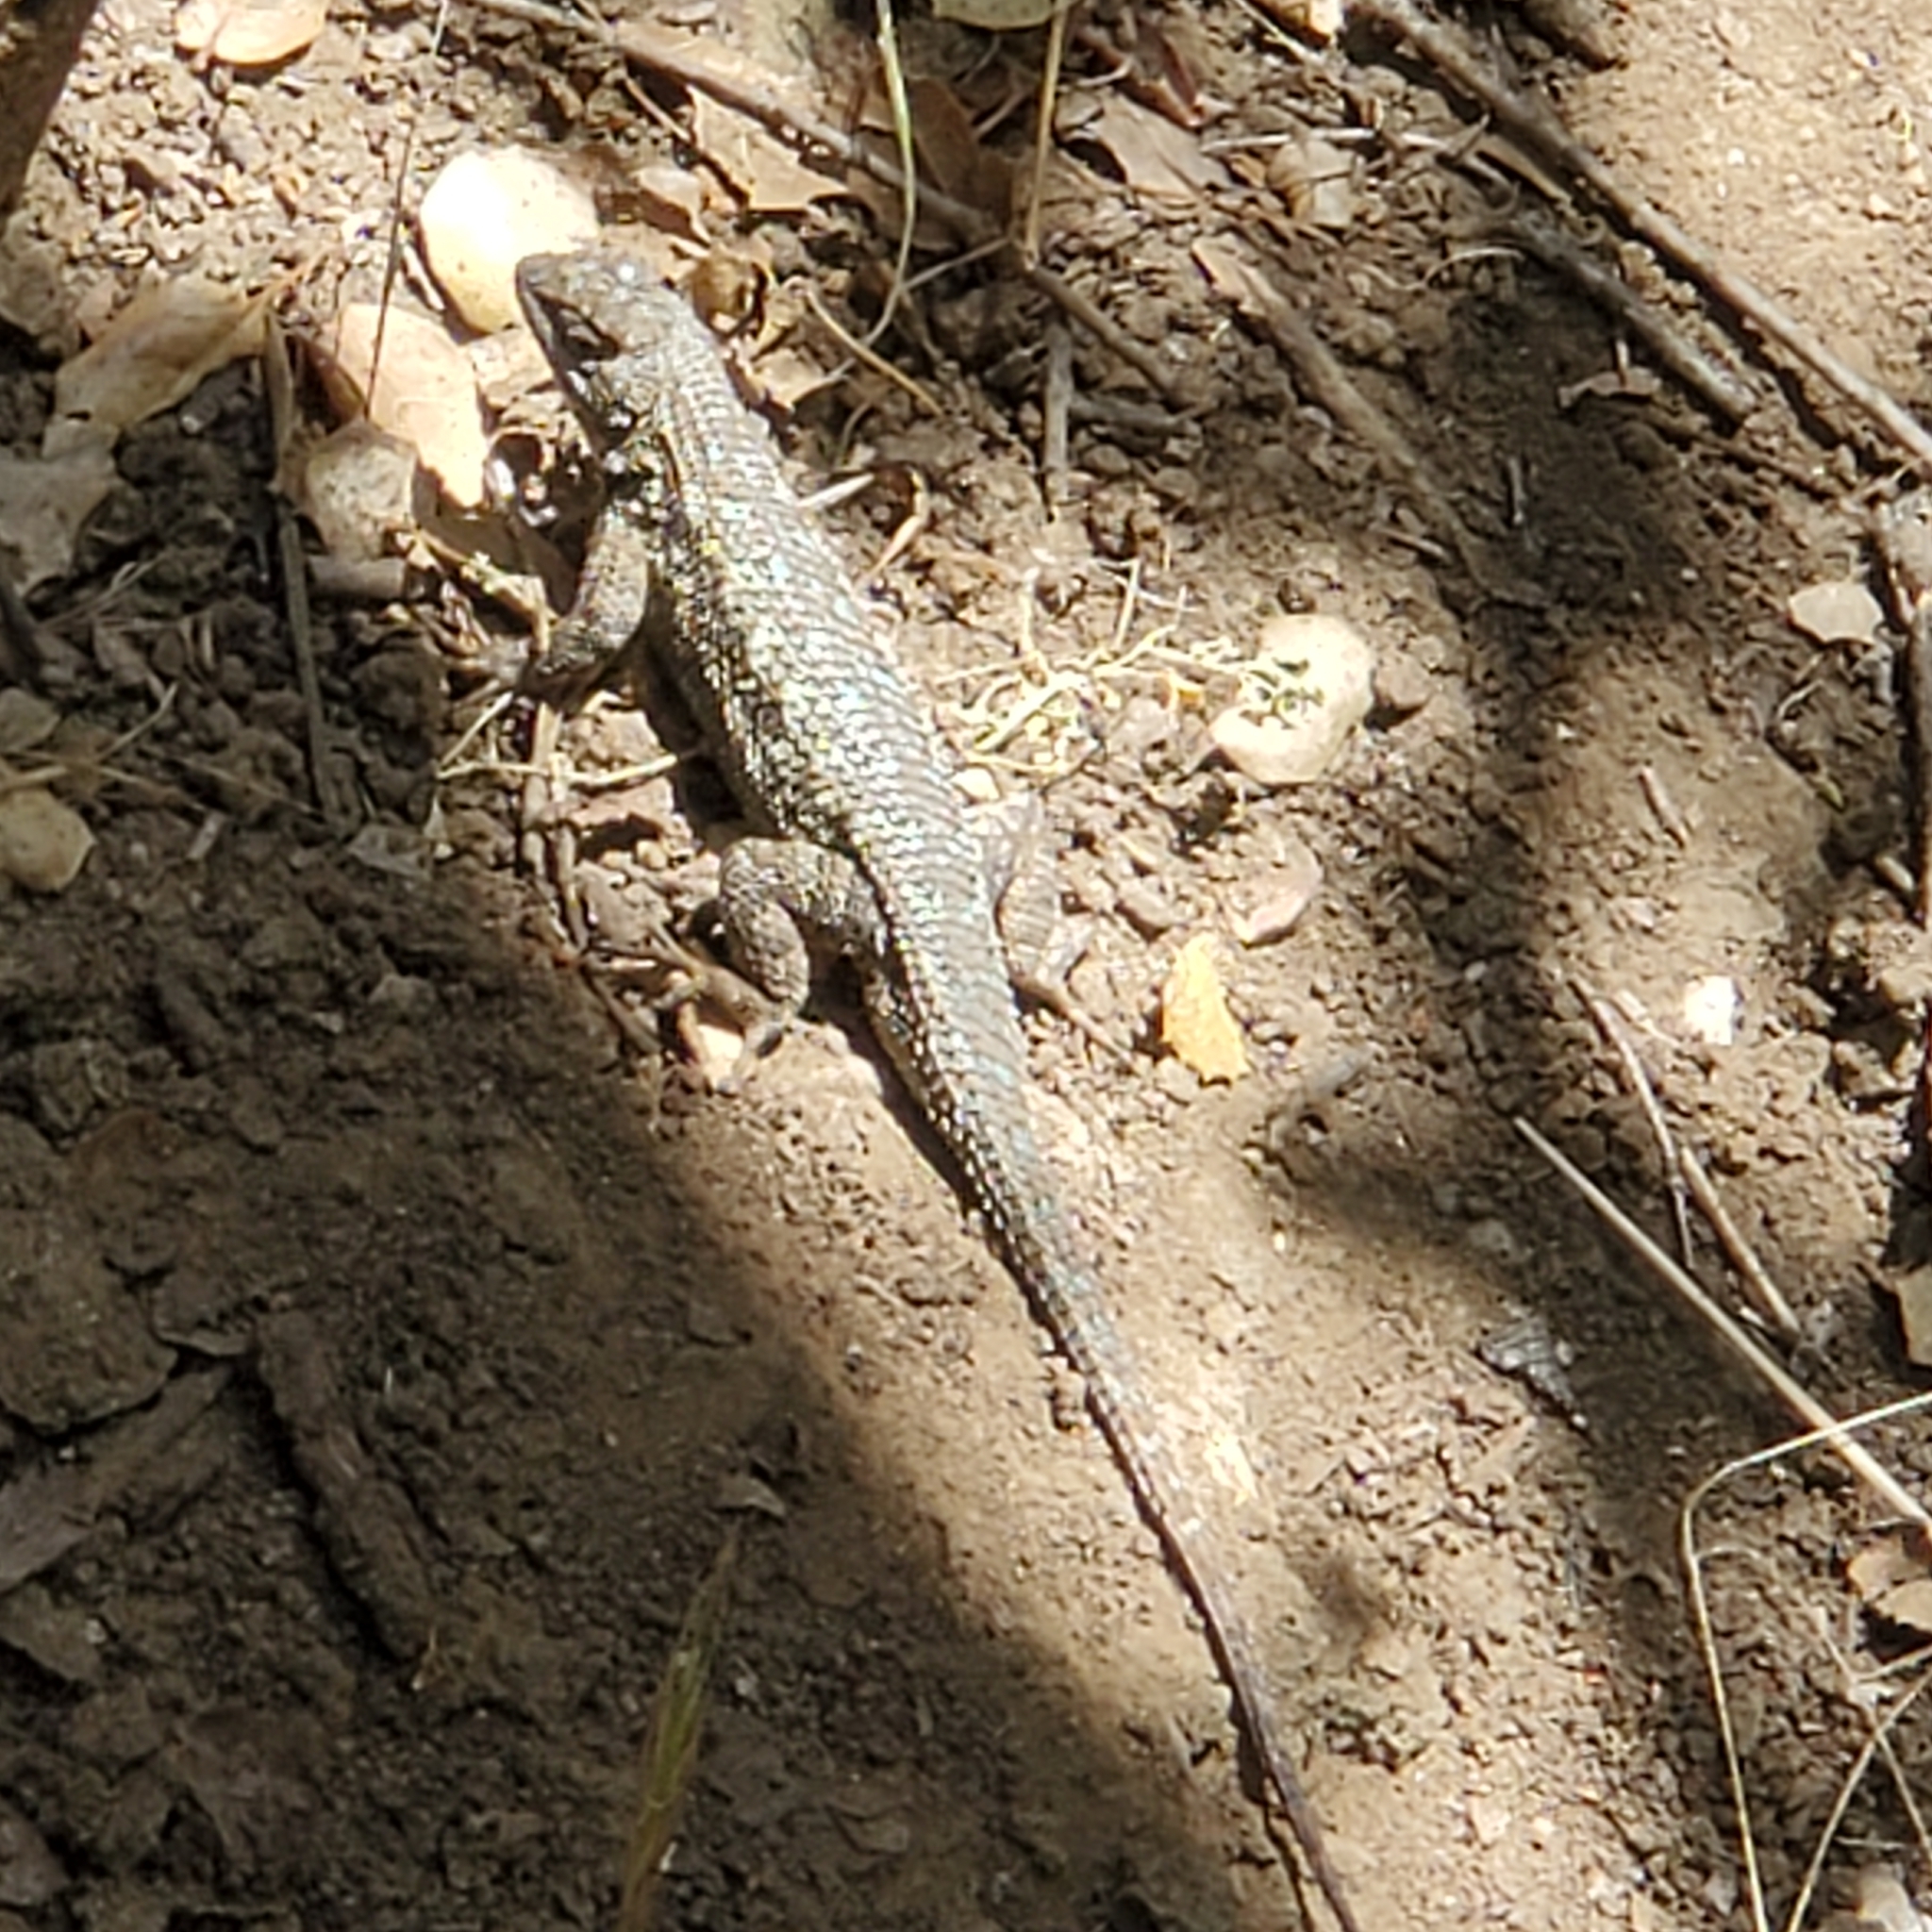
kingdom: Animalia
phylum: Chordata
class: Squamata
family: Phrynosomatidae
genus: Sceloporus
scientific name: Sceloporus occidentalis
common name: Western fence lizard
